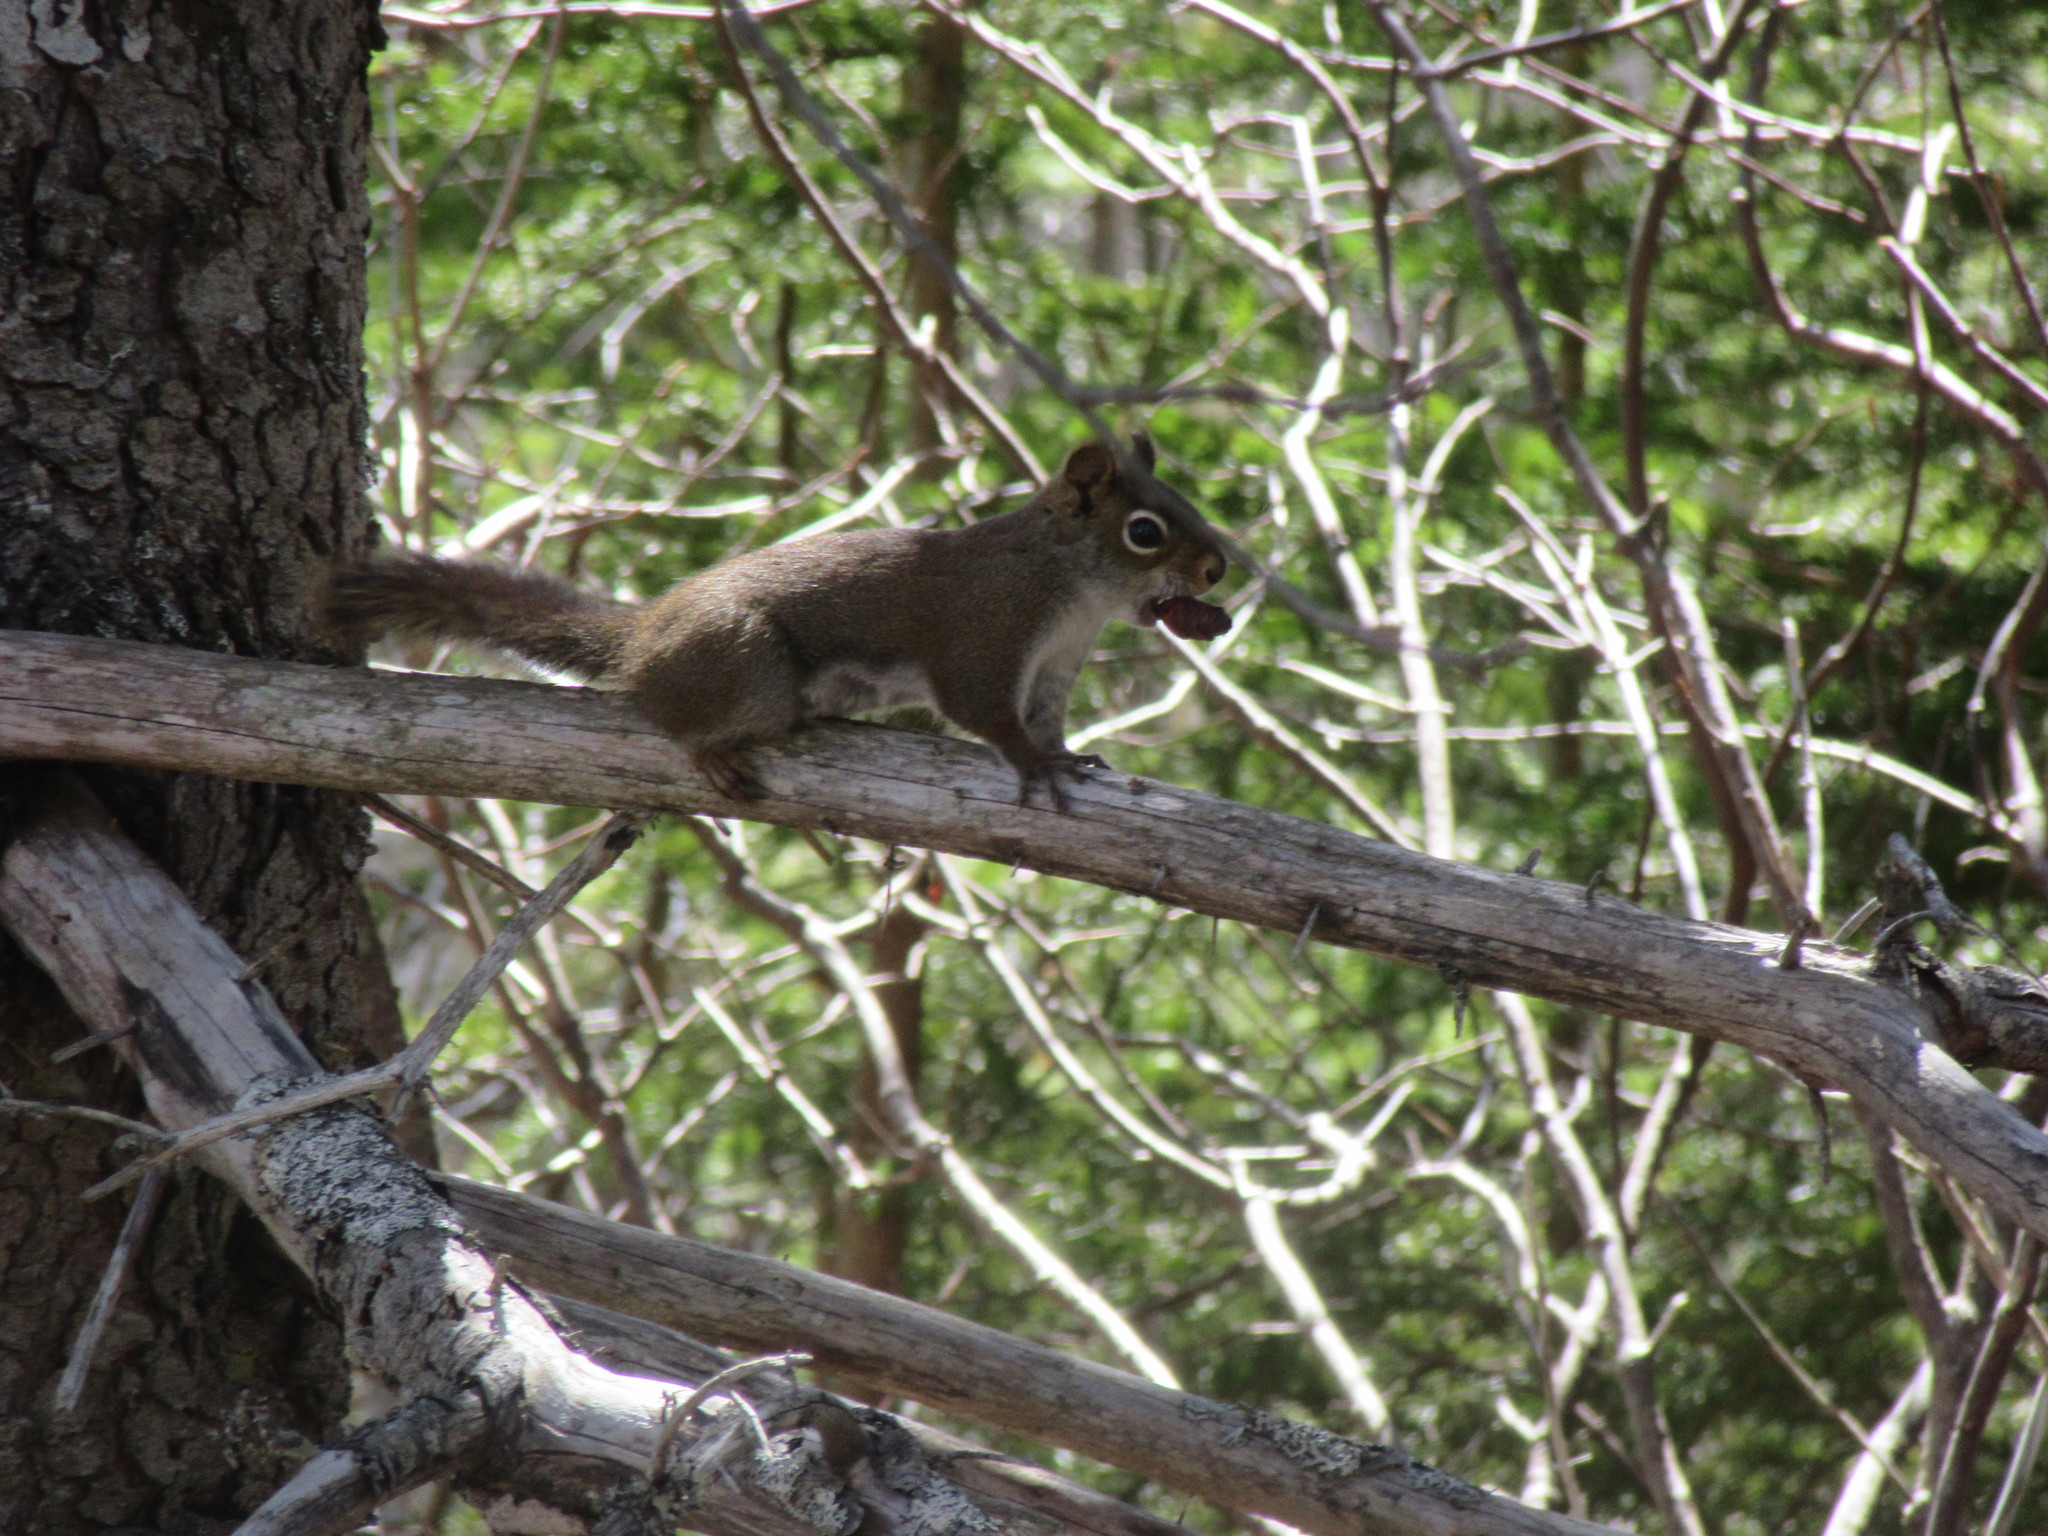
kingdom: Animalia
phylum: Chordata
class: Mammalia
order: Rodentia
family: Sciuridae
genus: Tamiasciurus
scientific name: Tamiasciurus hudsonicus
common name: Red squirrel
